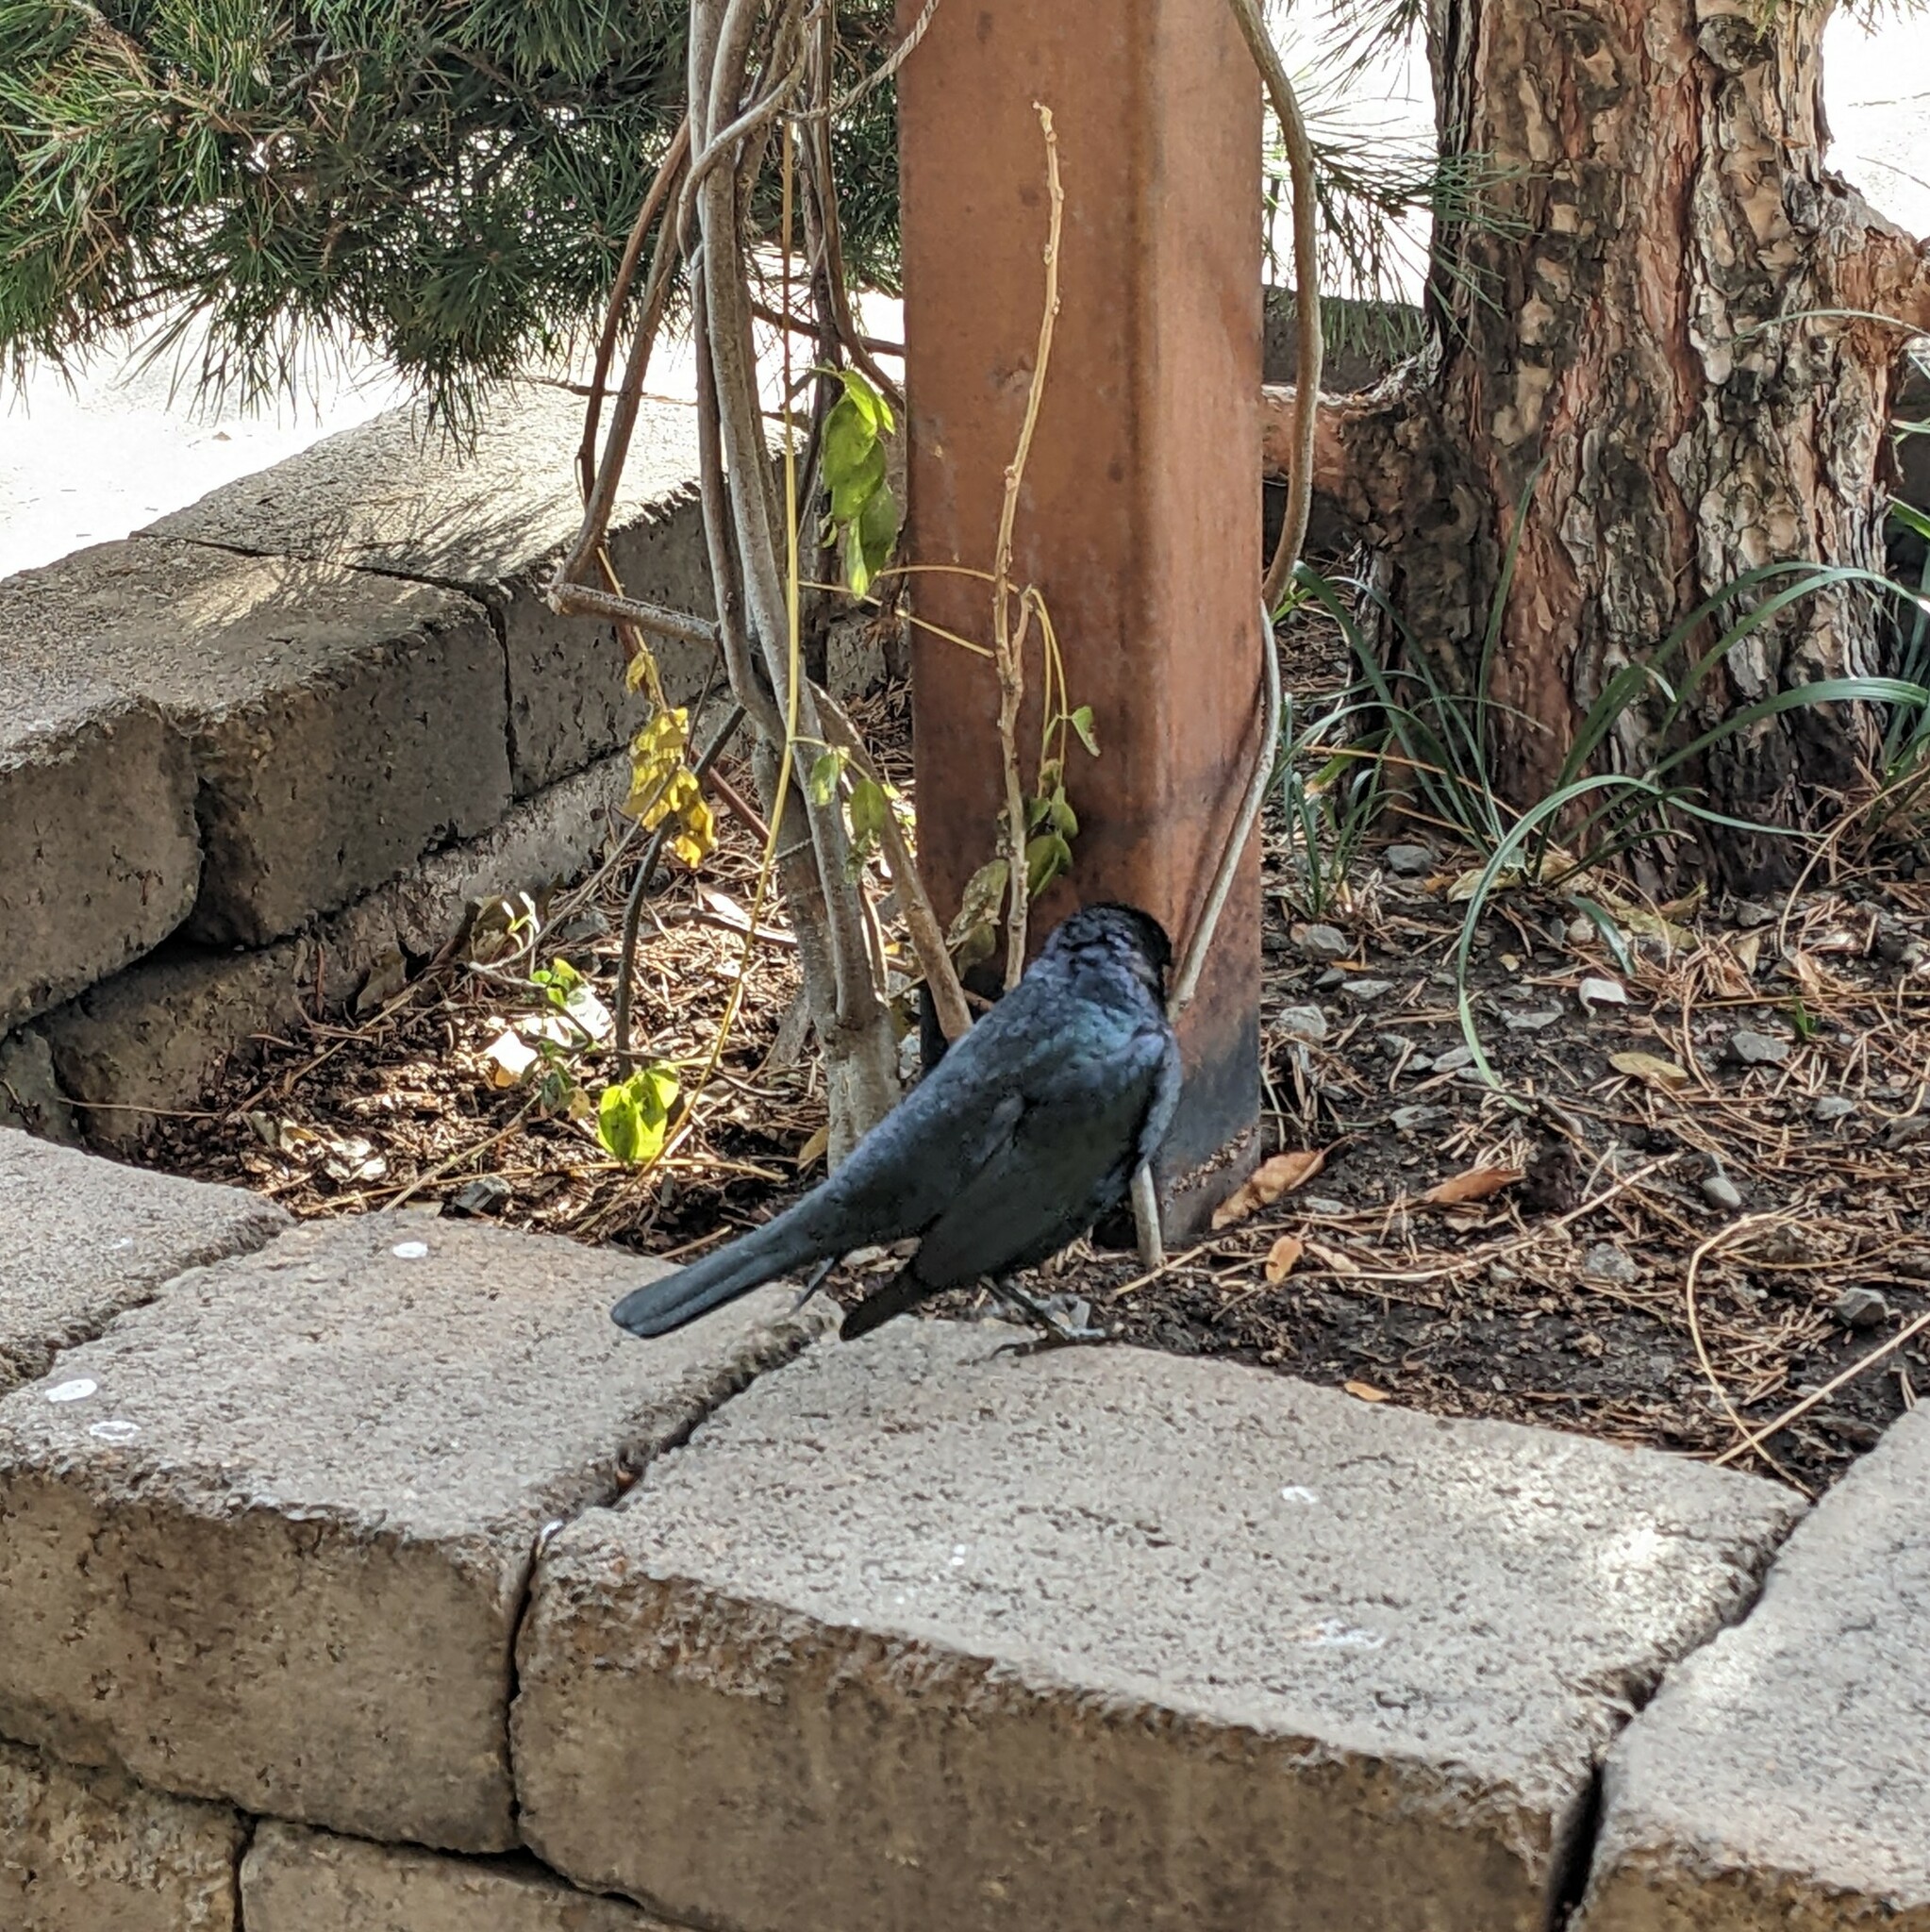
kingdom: Animalia
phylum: Chordata
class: Aves
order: Passeriformes
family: Icteridae
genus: Euphagus
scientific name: Euphagus cyanocephalus
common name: Brewer's blackbird
